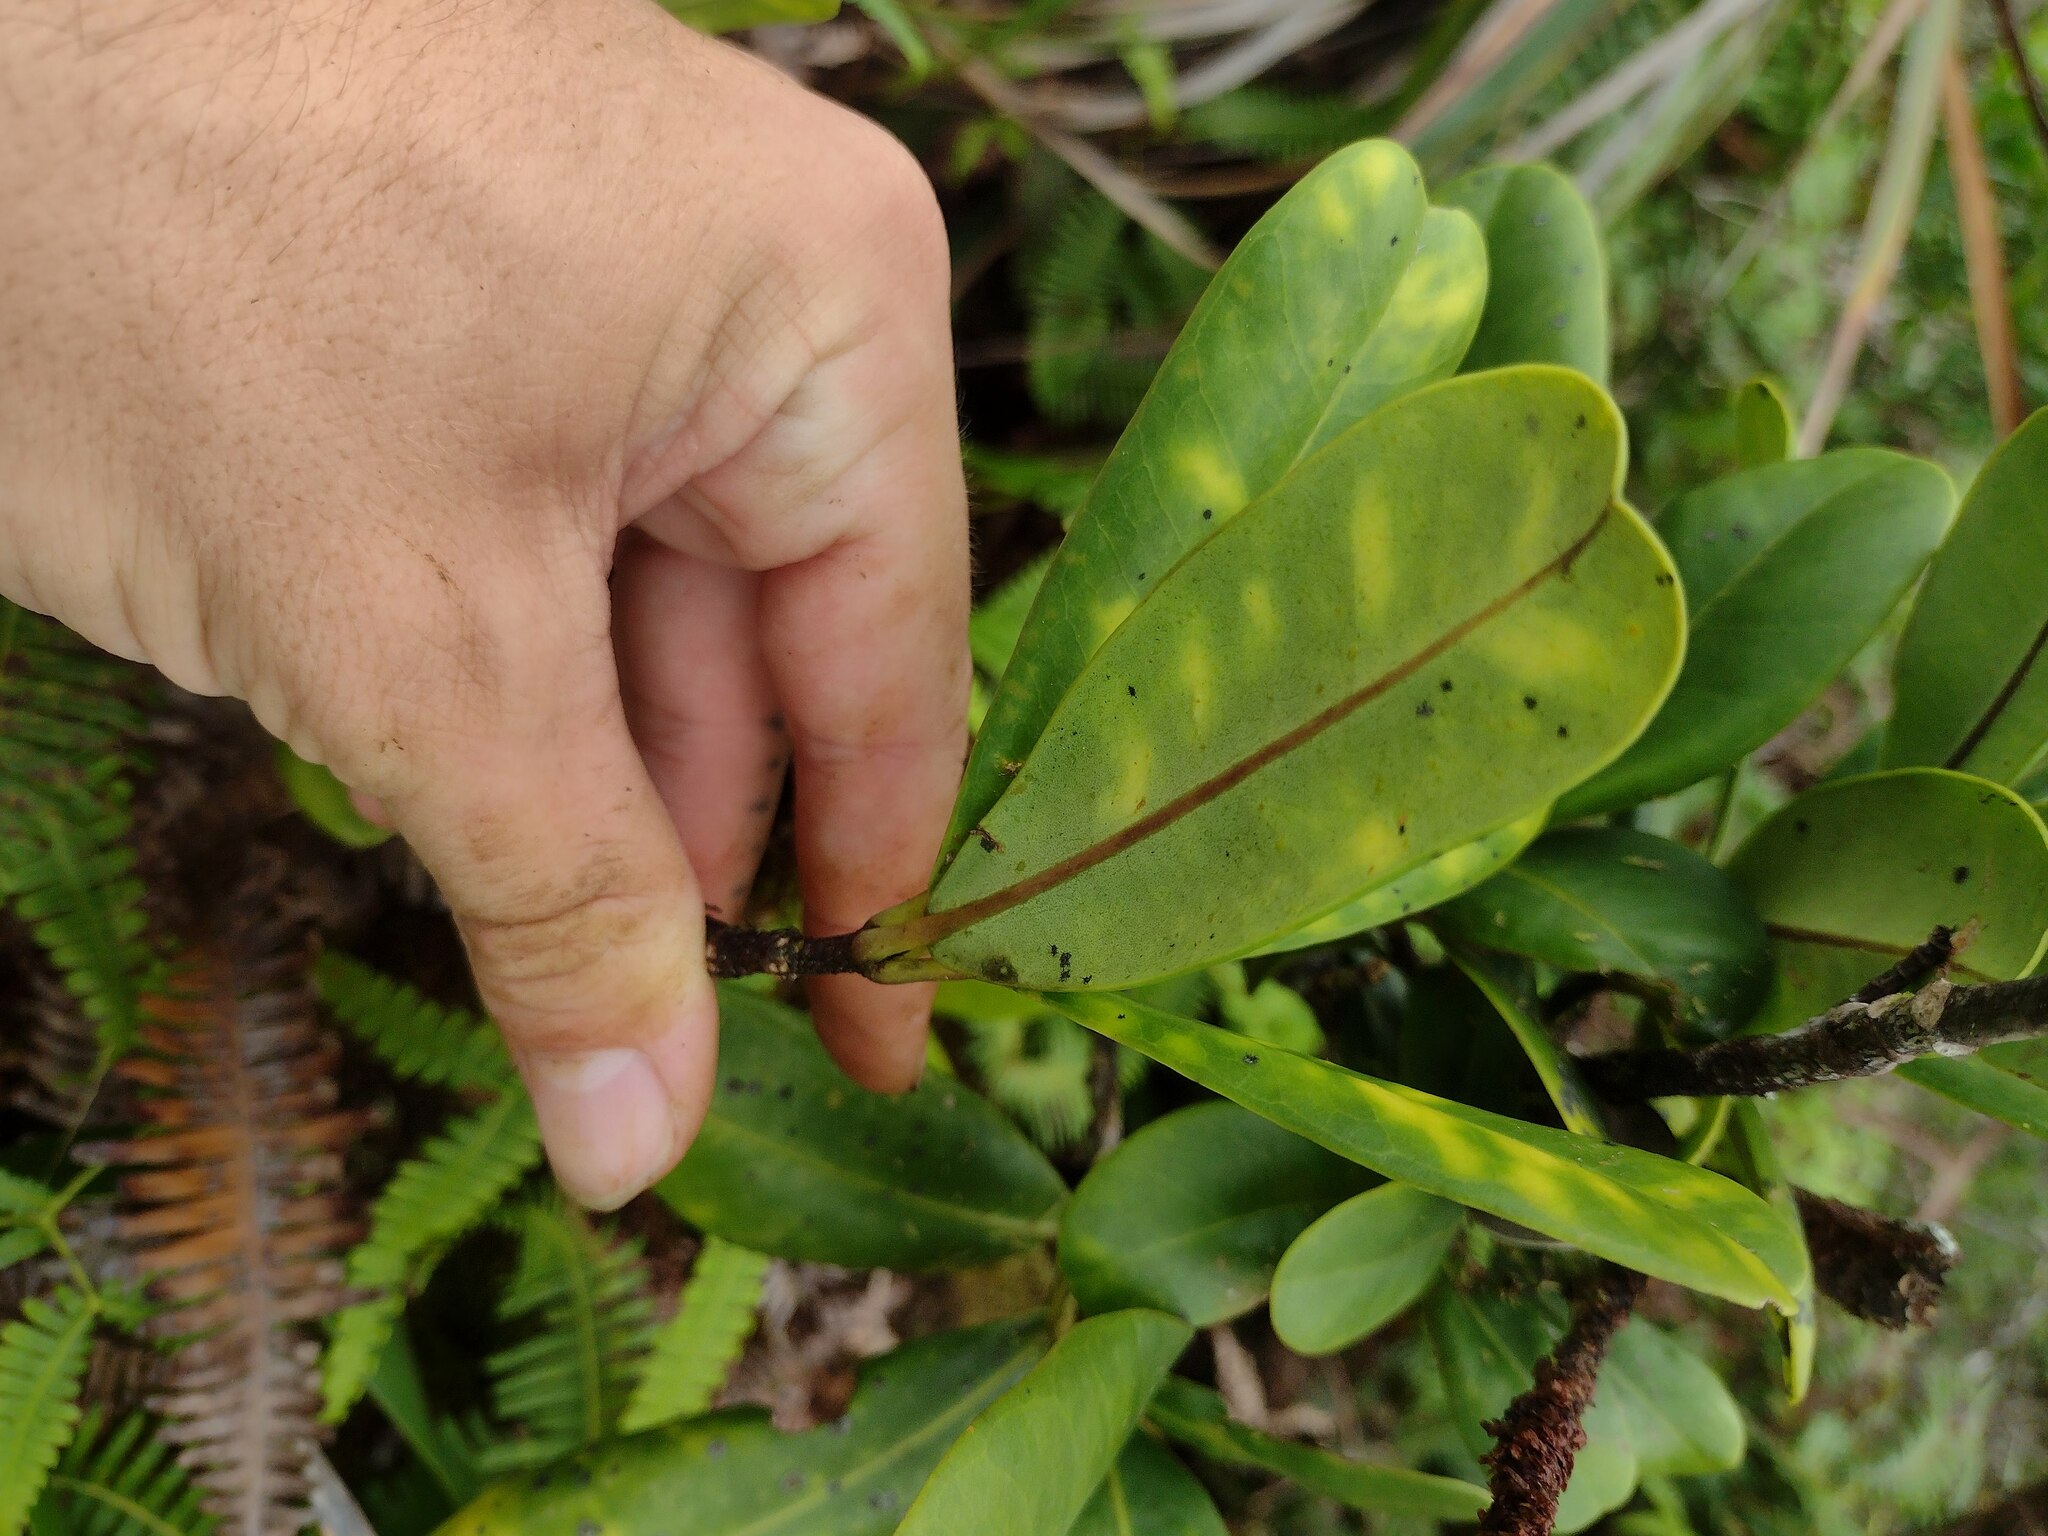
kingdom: Plantae
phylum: Tracheophyta
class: Magnoliopsida
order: Sapindales
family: Rutaceae
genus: Melicope
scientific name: Melicope clusiifolia
